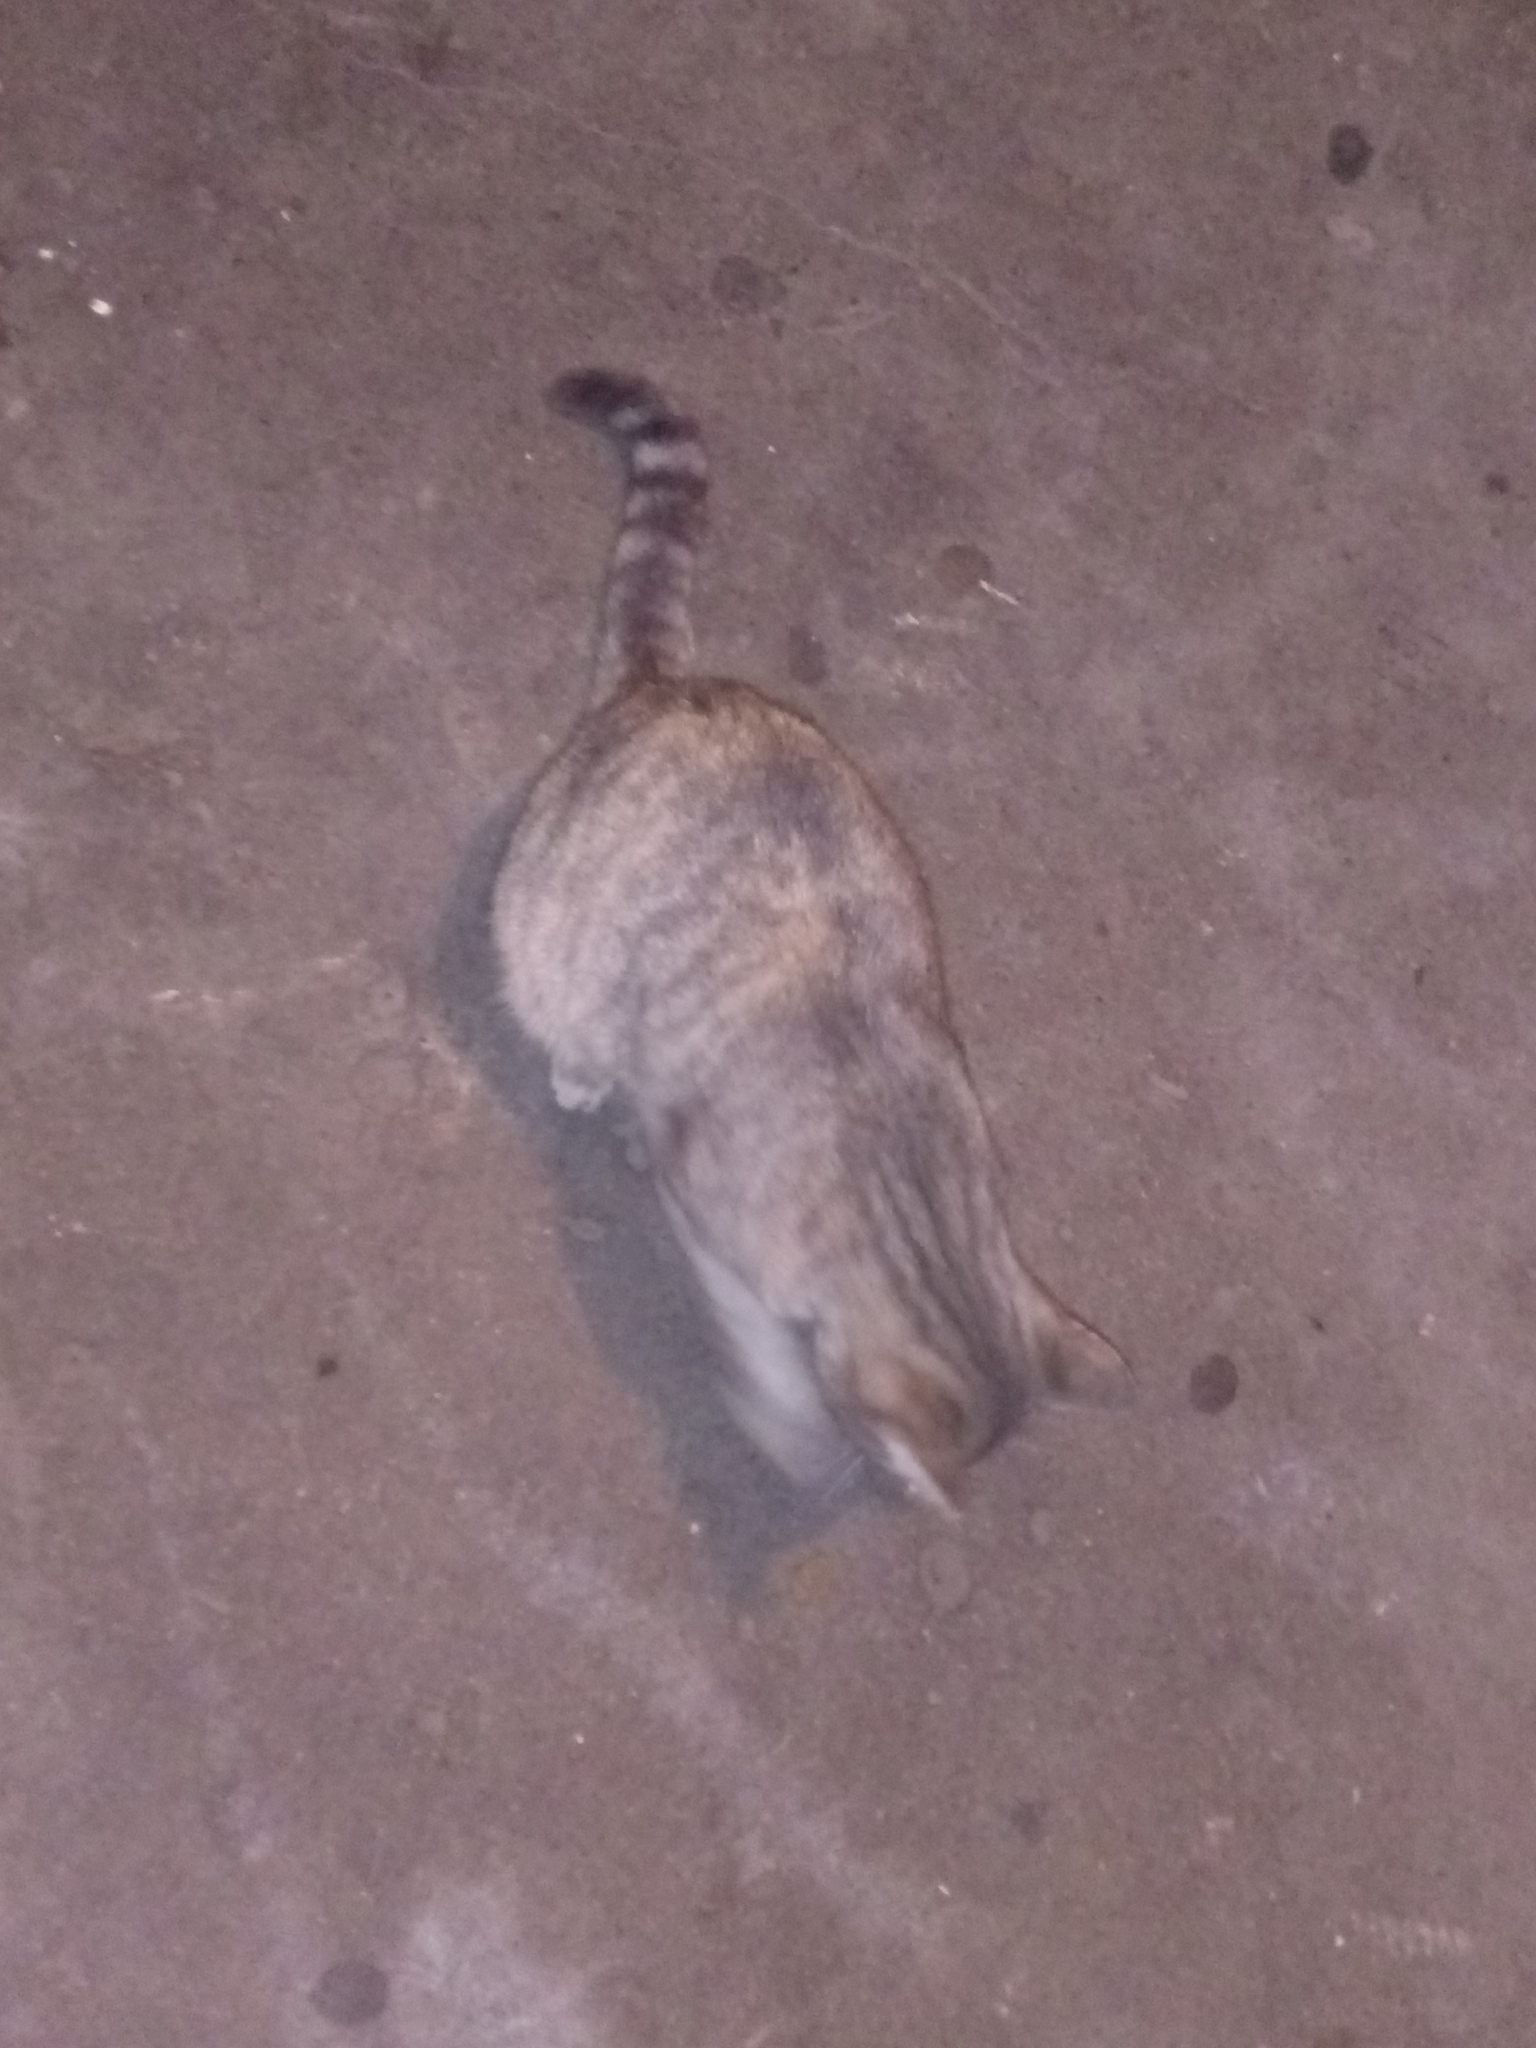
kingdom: Animalia
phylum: Chordata
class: Mammalia
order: Carnivora
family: Felidae
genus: Felis
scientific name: Felis catus
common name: Domestic cat
